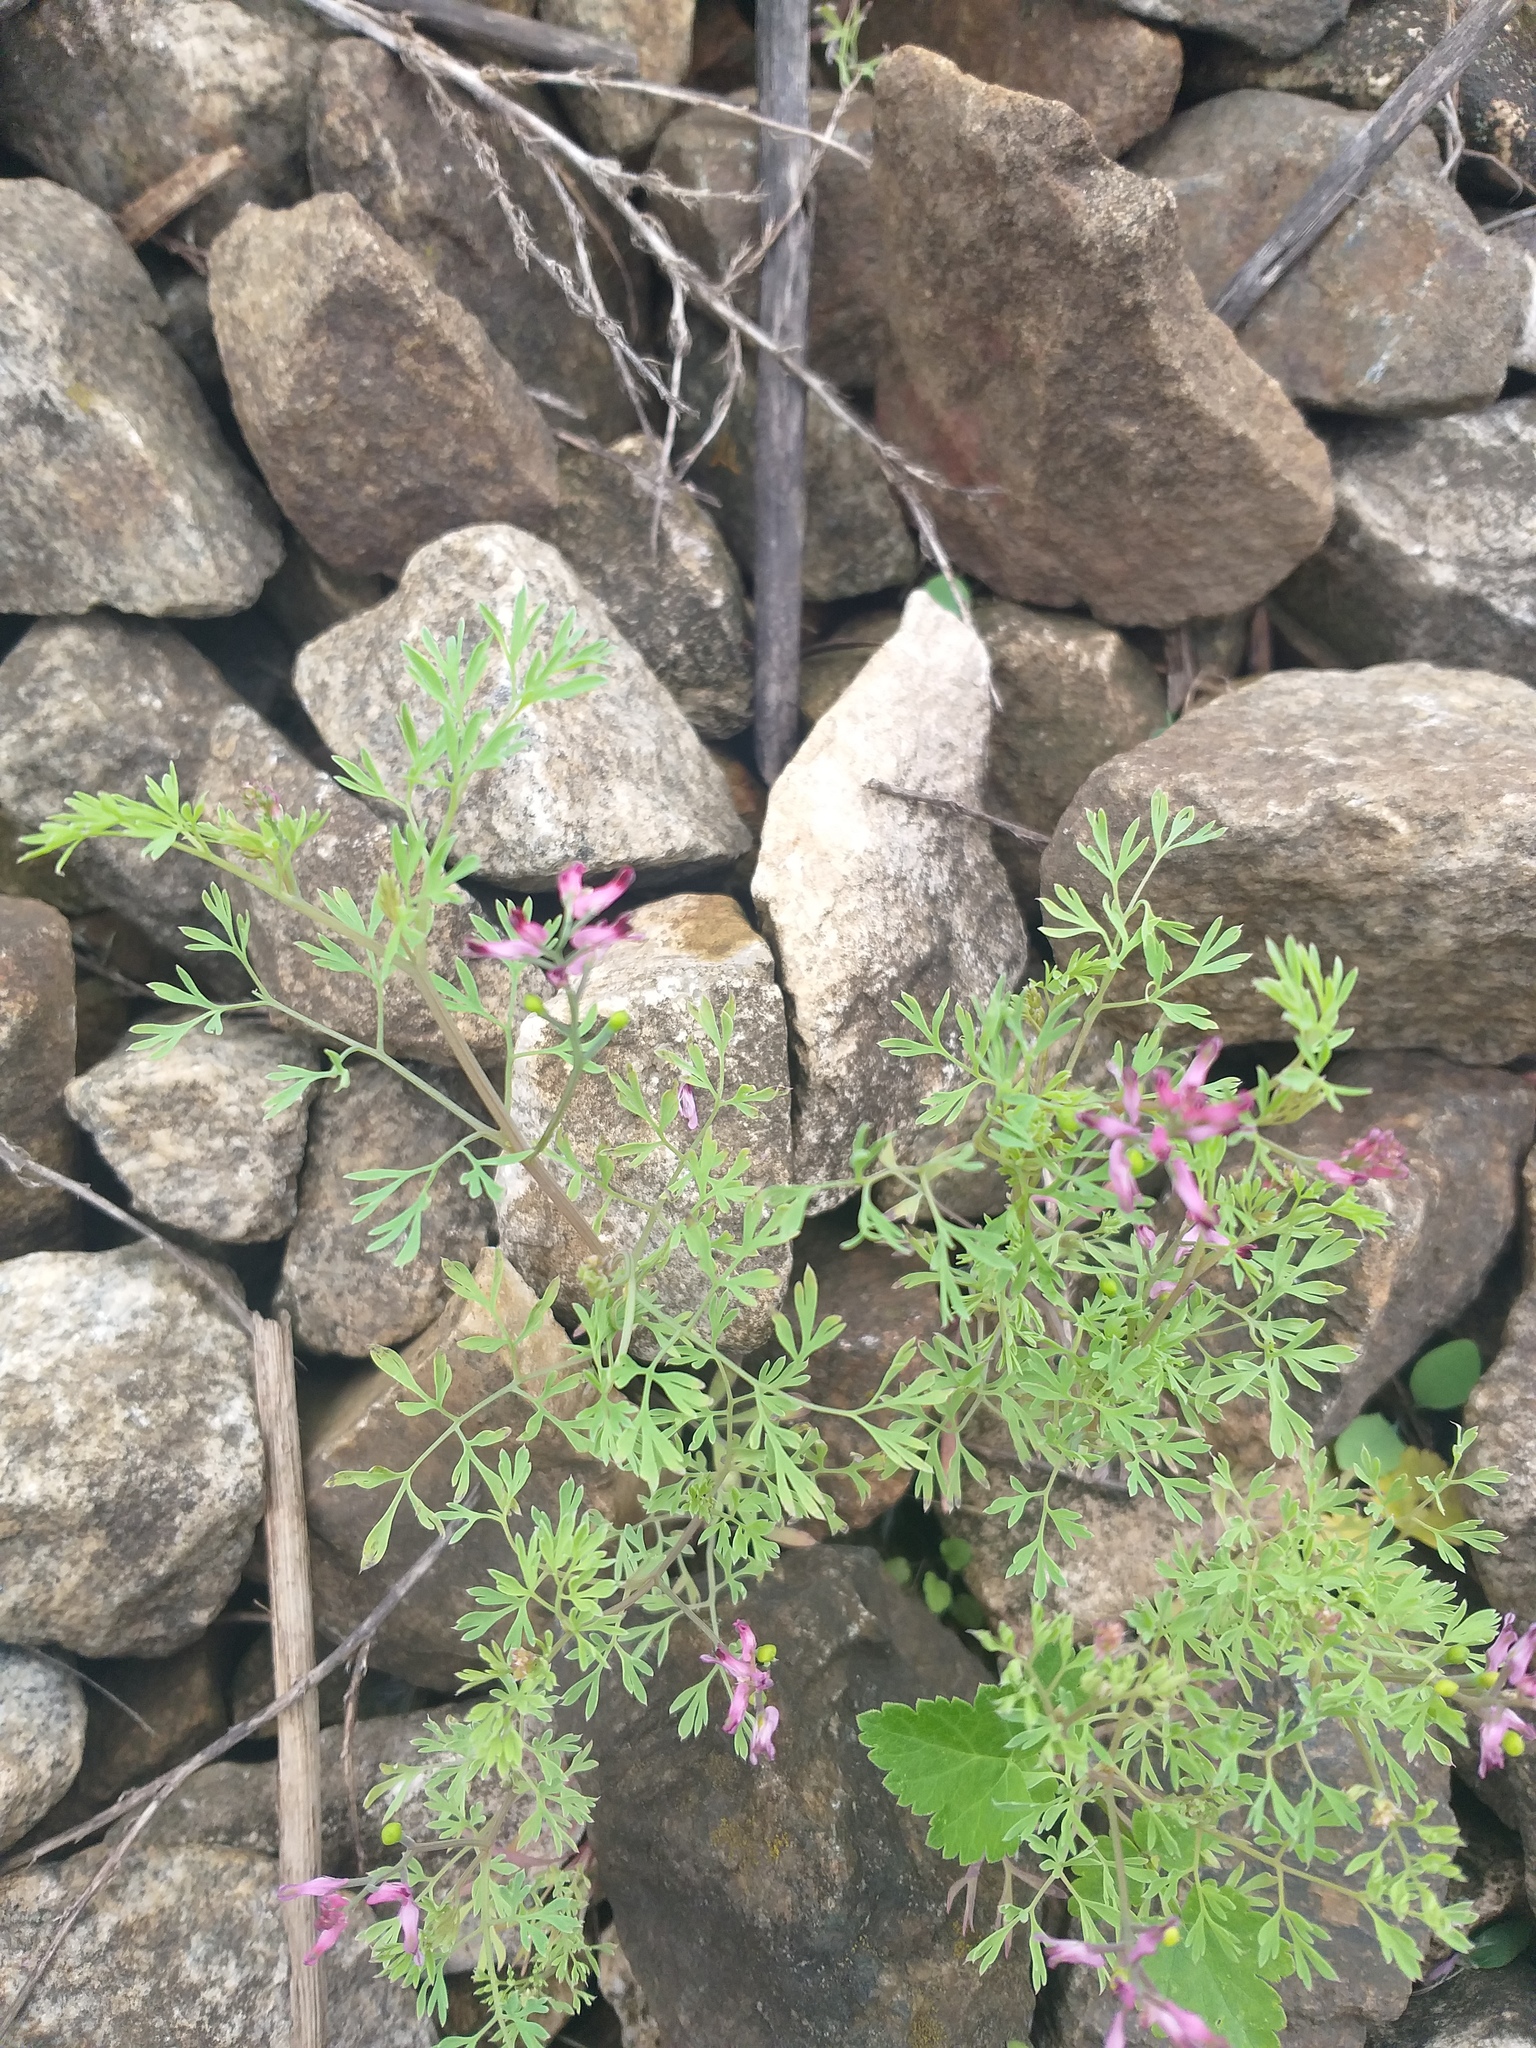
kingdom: Plantae
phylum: Tracheophyta
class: Magnoliopsida
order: Ranunculales
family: Papaveraceae
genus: Fumaria
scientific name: Fumaria schleicheri
